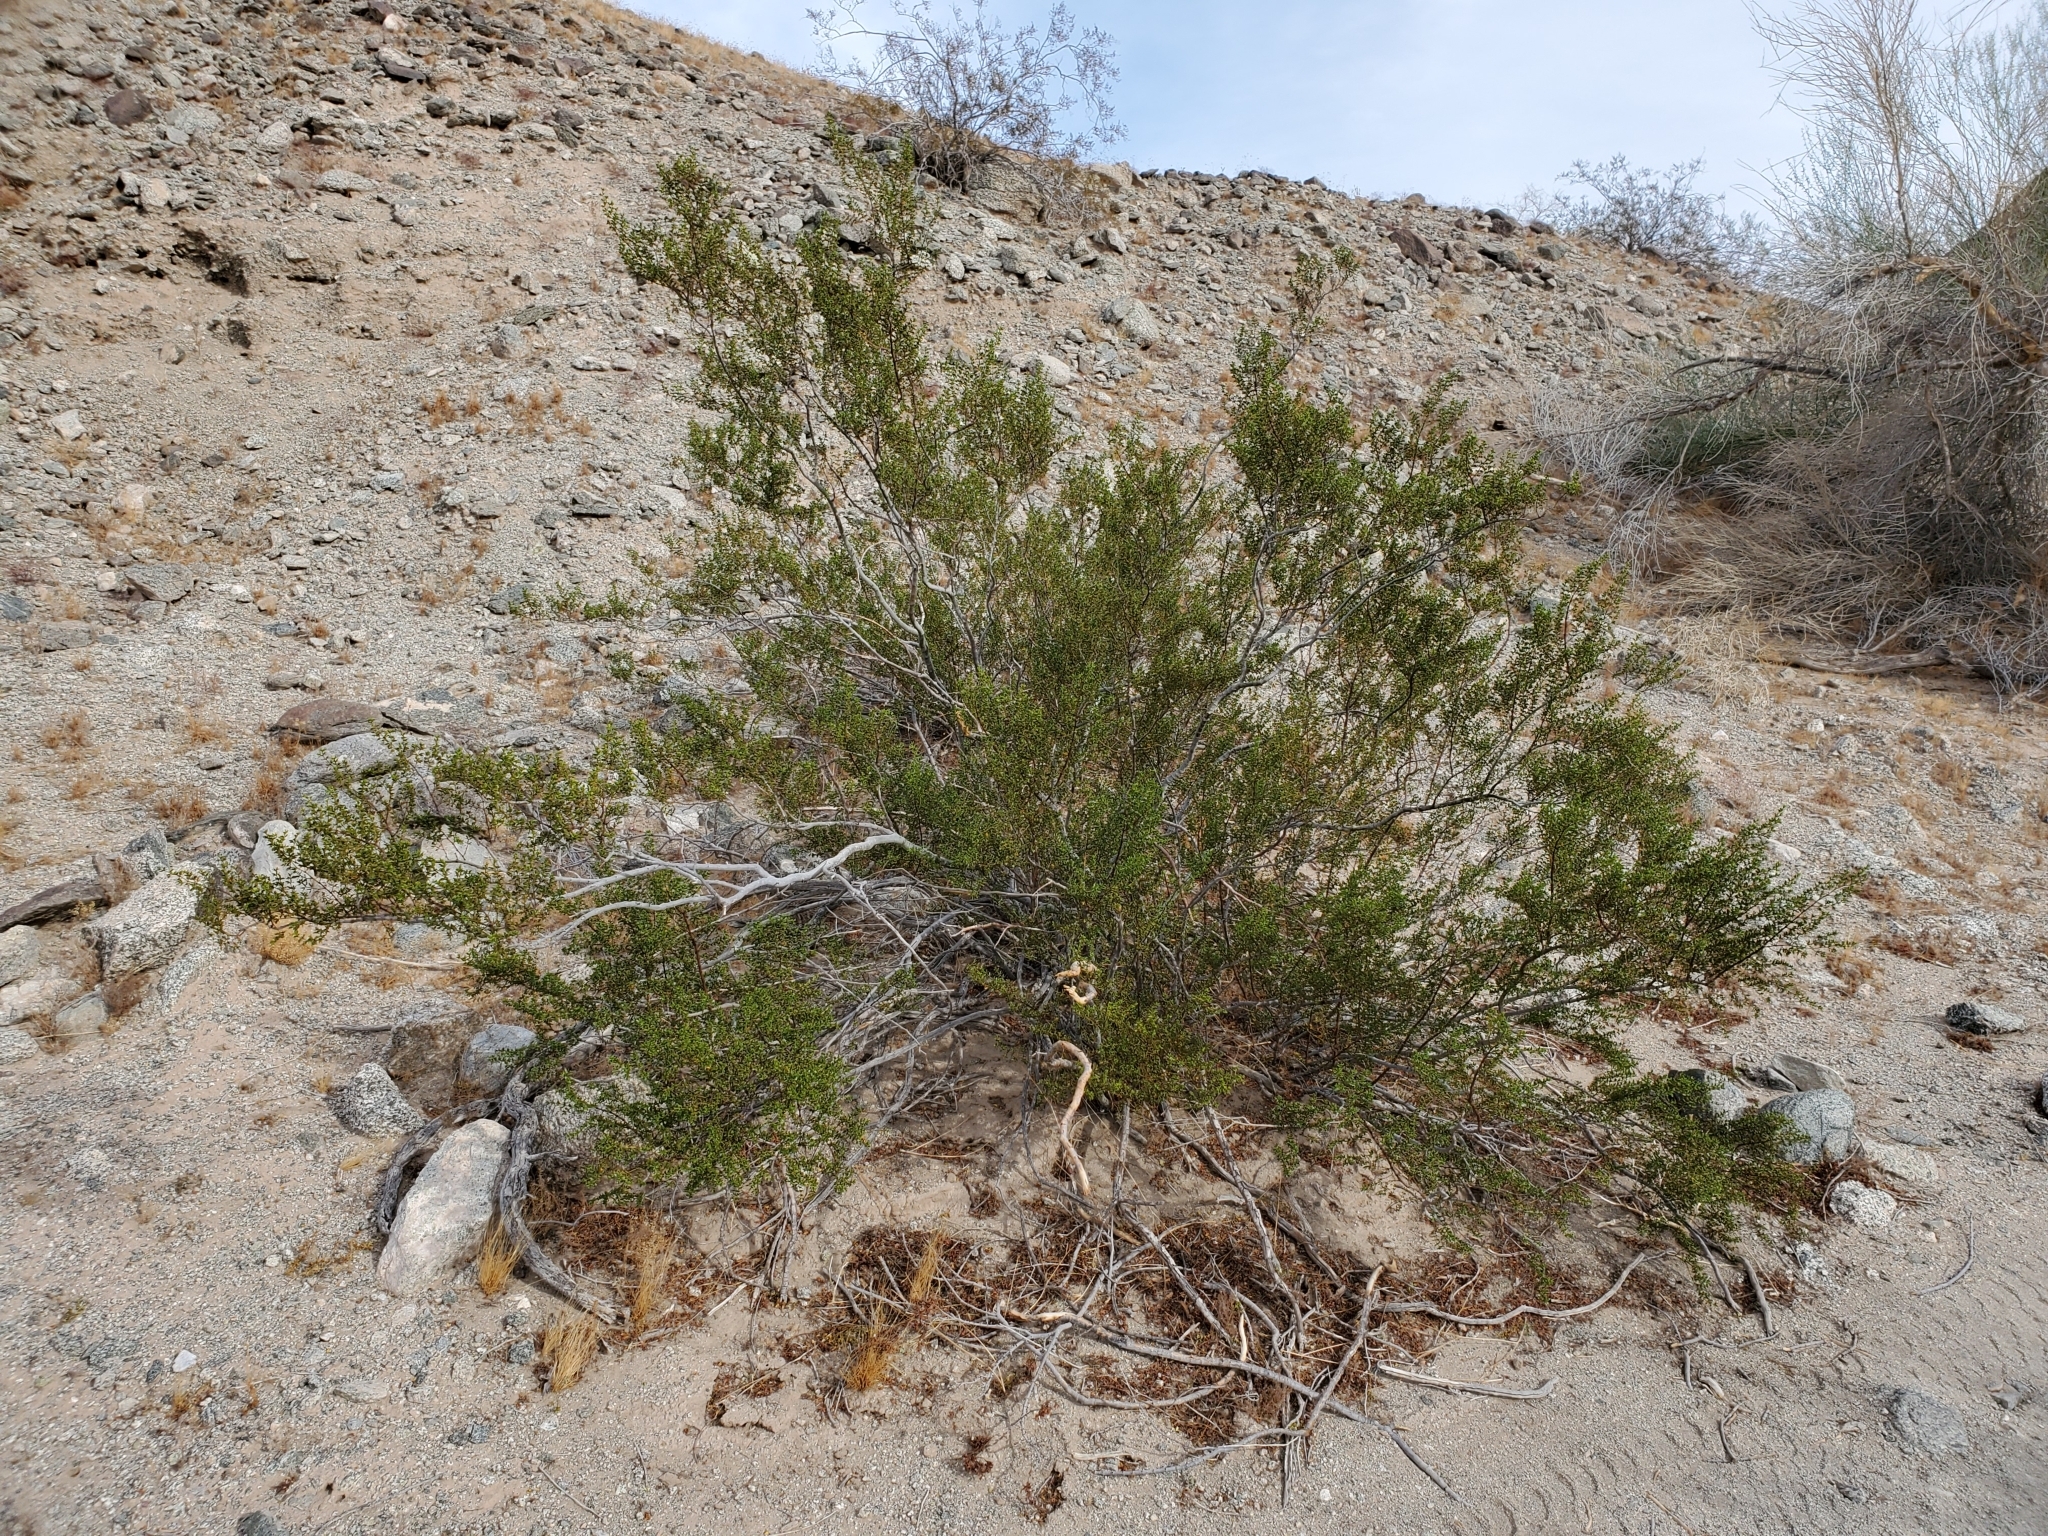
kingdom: Plantae
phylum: Tracheophyta
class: Magnoliopsida
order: Zygophyllales
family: Zygophyllaceae
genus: Larrea
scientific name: Larrea tridentata
